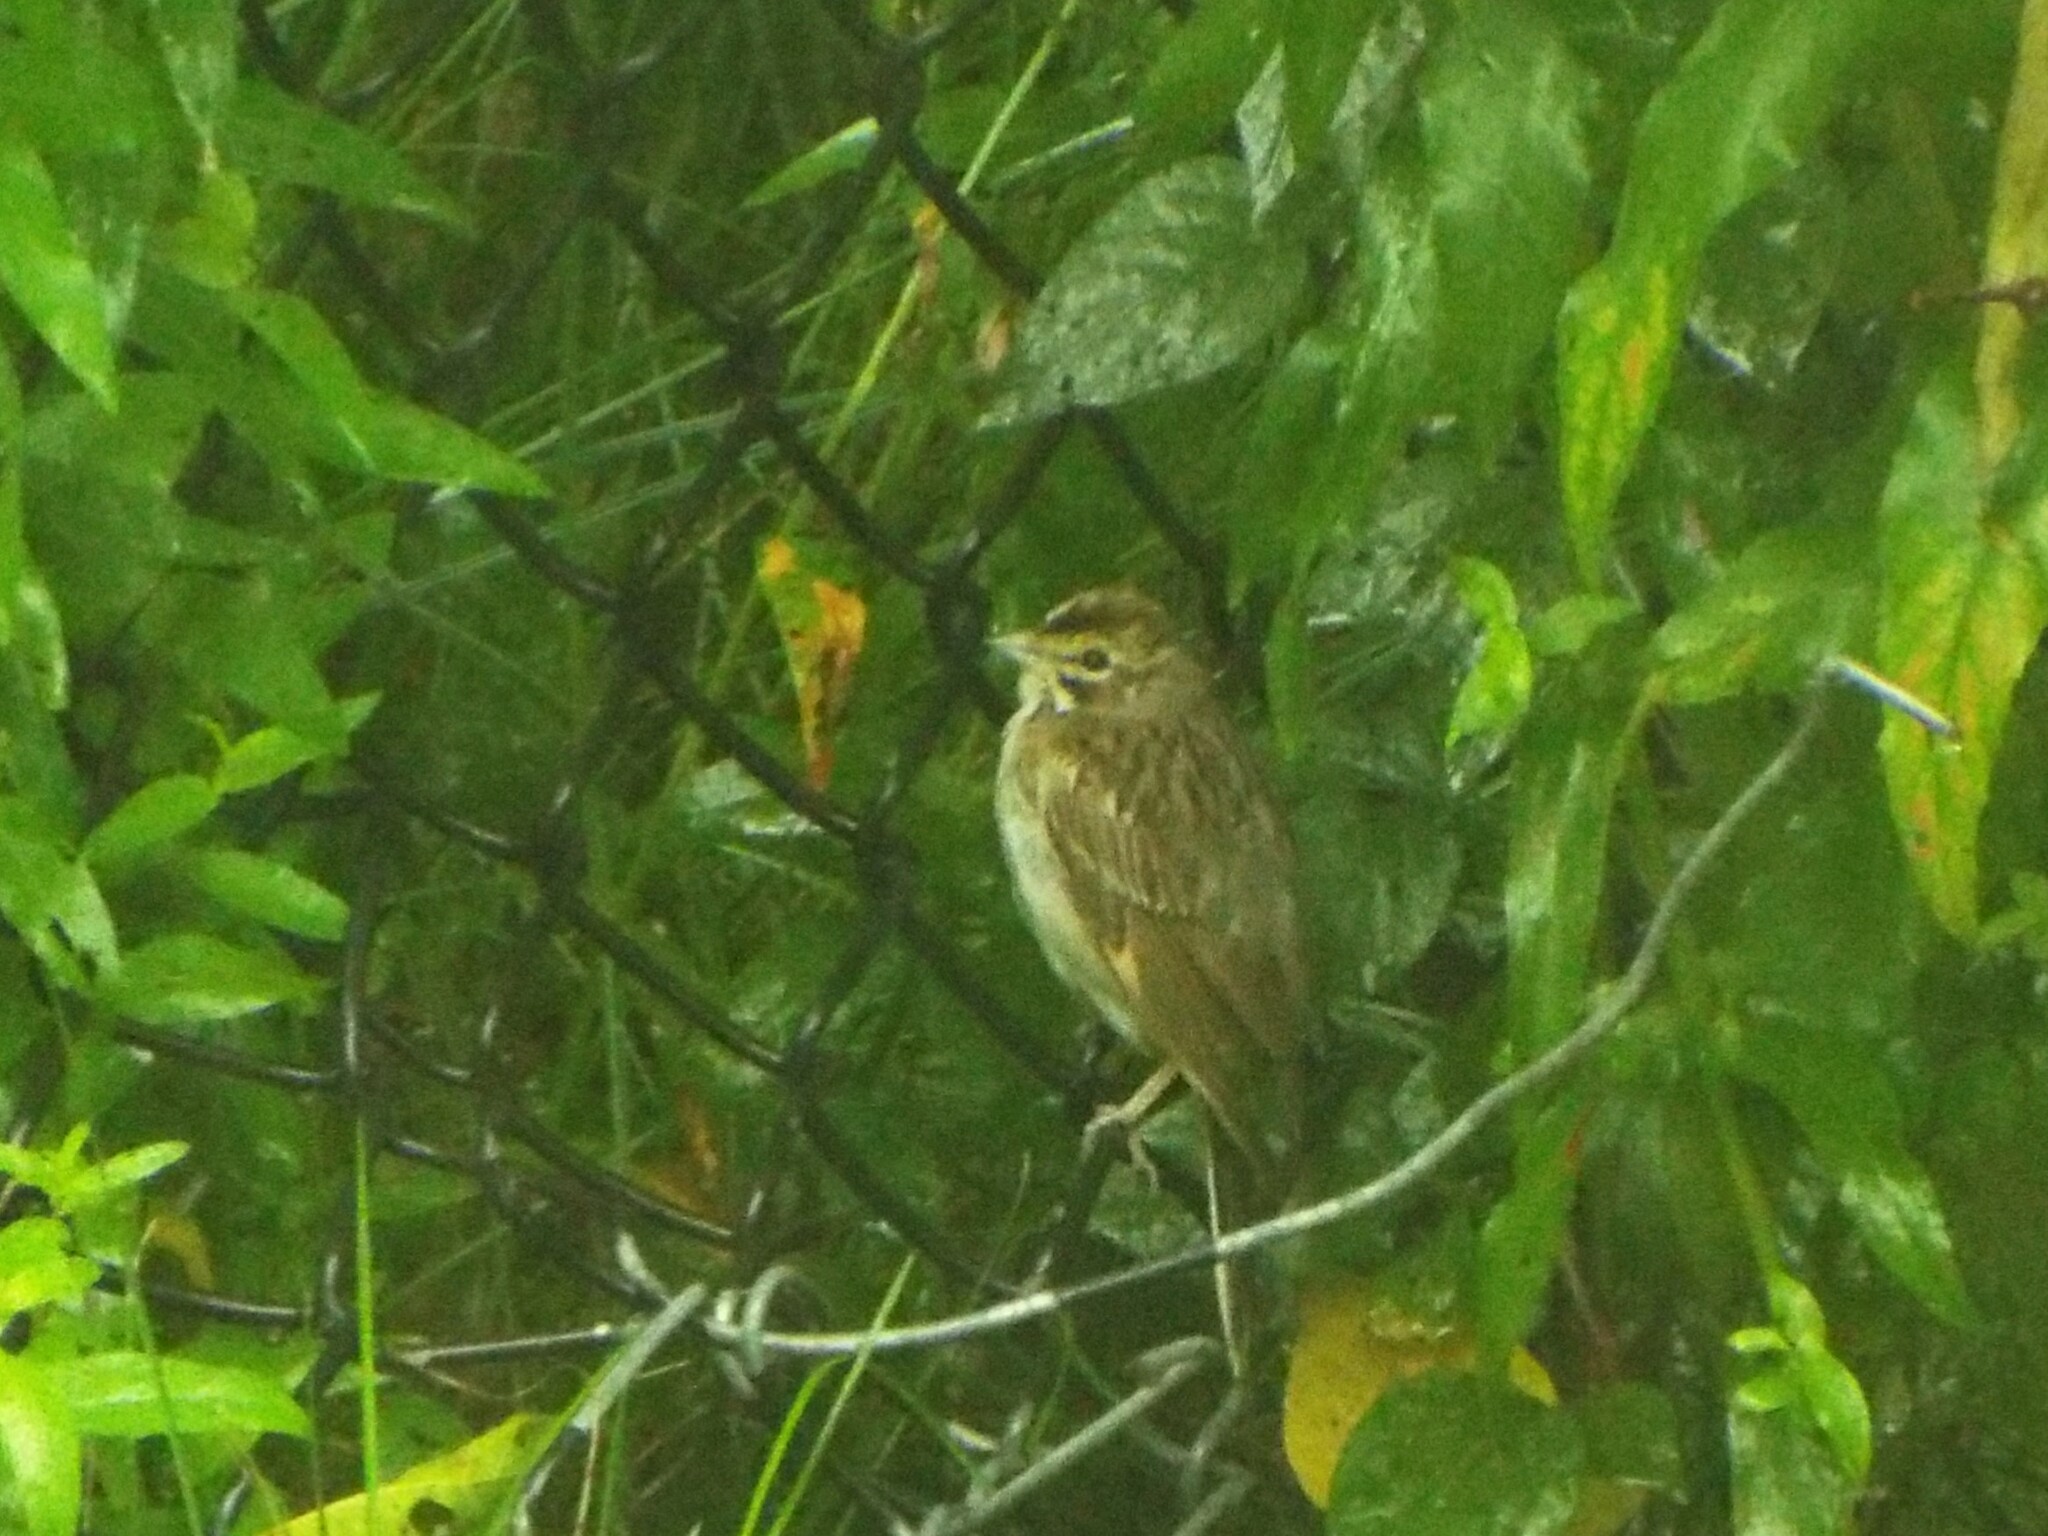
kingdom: Animalia
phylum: Chordata
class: Aves
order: Passeriformes
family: Passerellidae
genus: Chondestes
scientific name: Chondestes grammacus
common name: Lark sparrow
